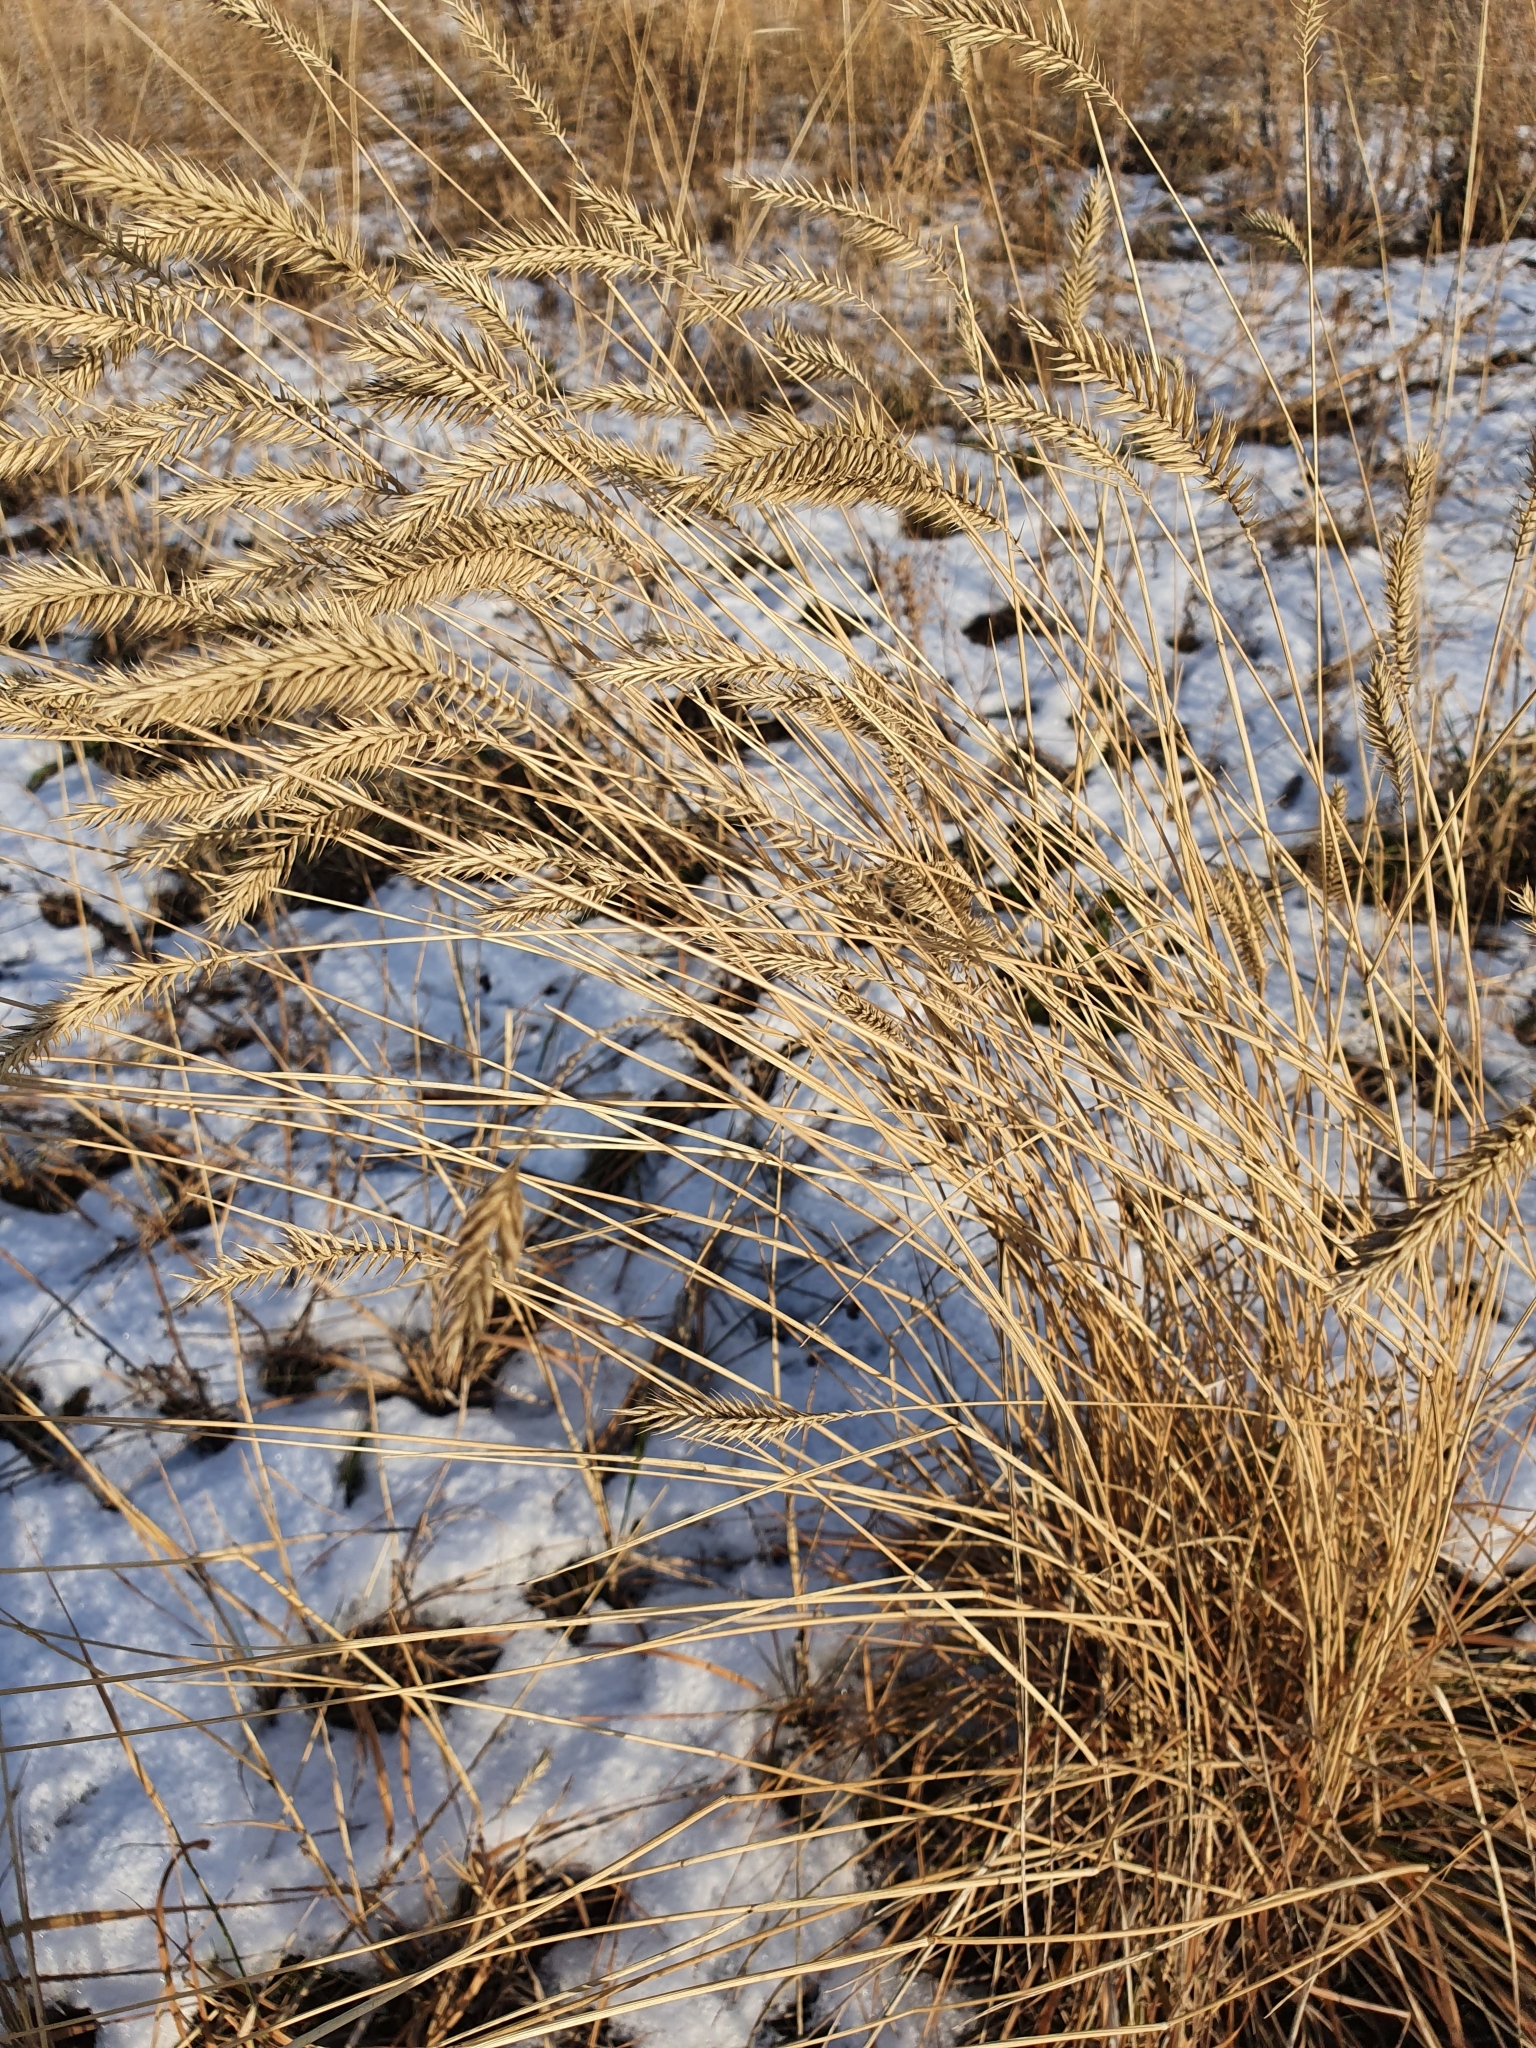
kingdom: Plantae
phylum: Tracheophyta
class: Liliopsida
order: Poales
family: Poaceae
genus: Agropyron
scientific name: Agropyron cristatum
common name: Crested wheatgrass
